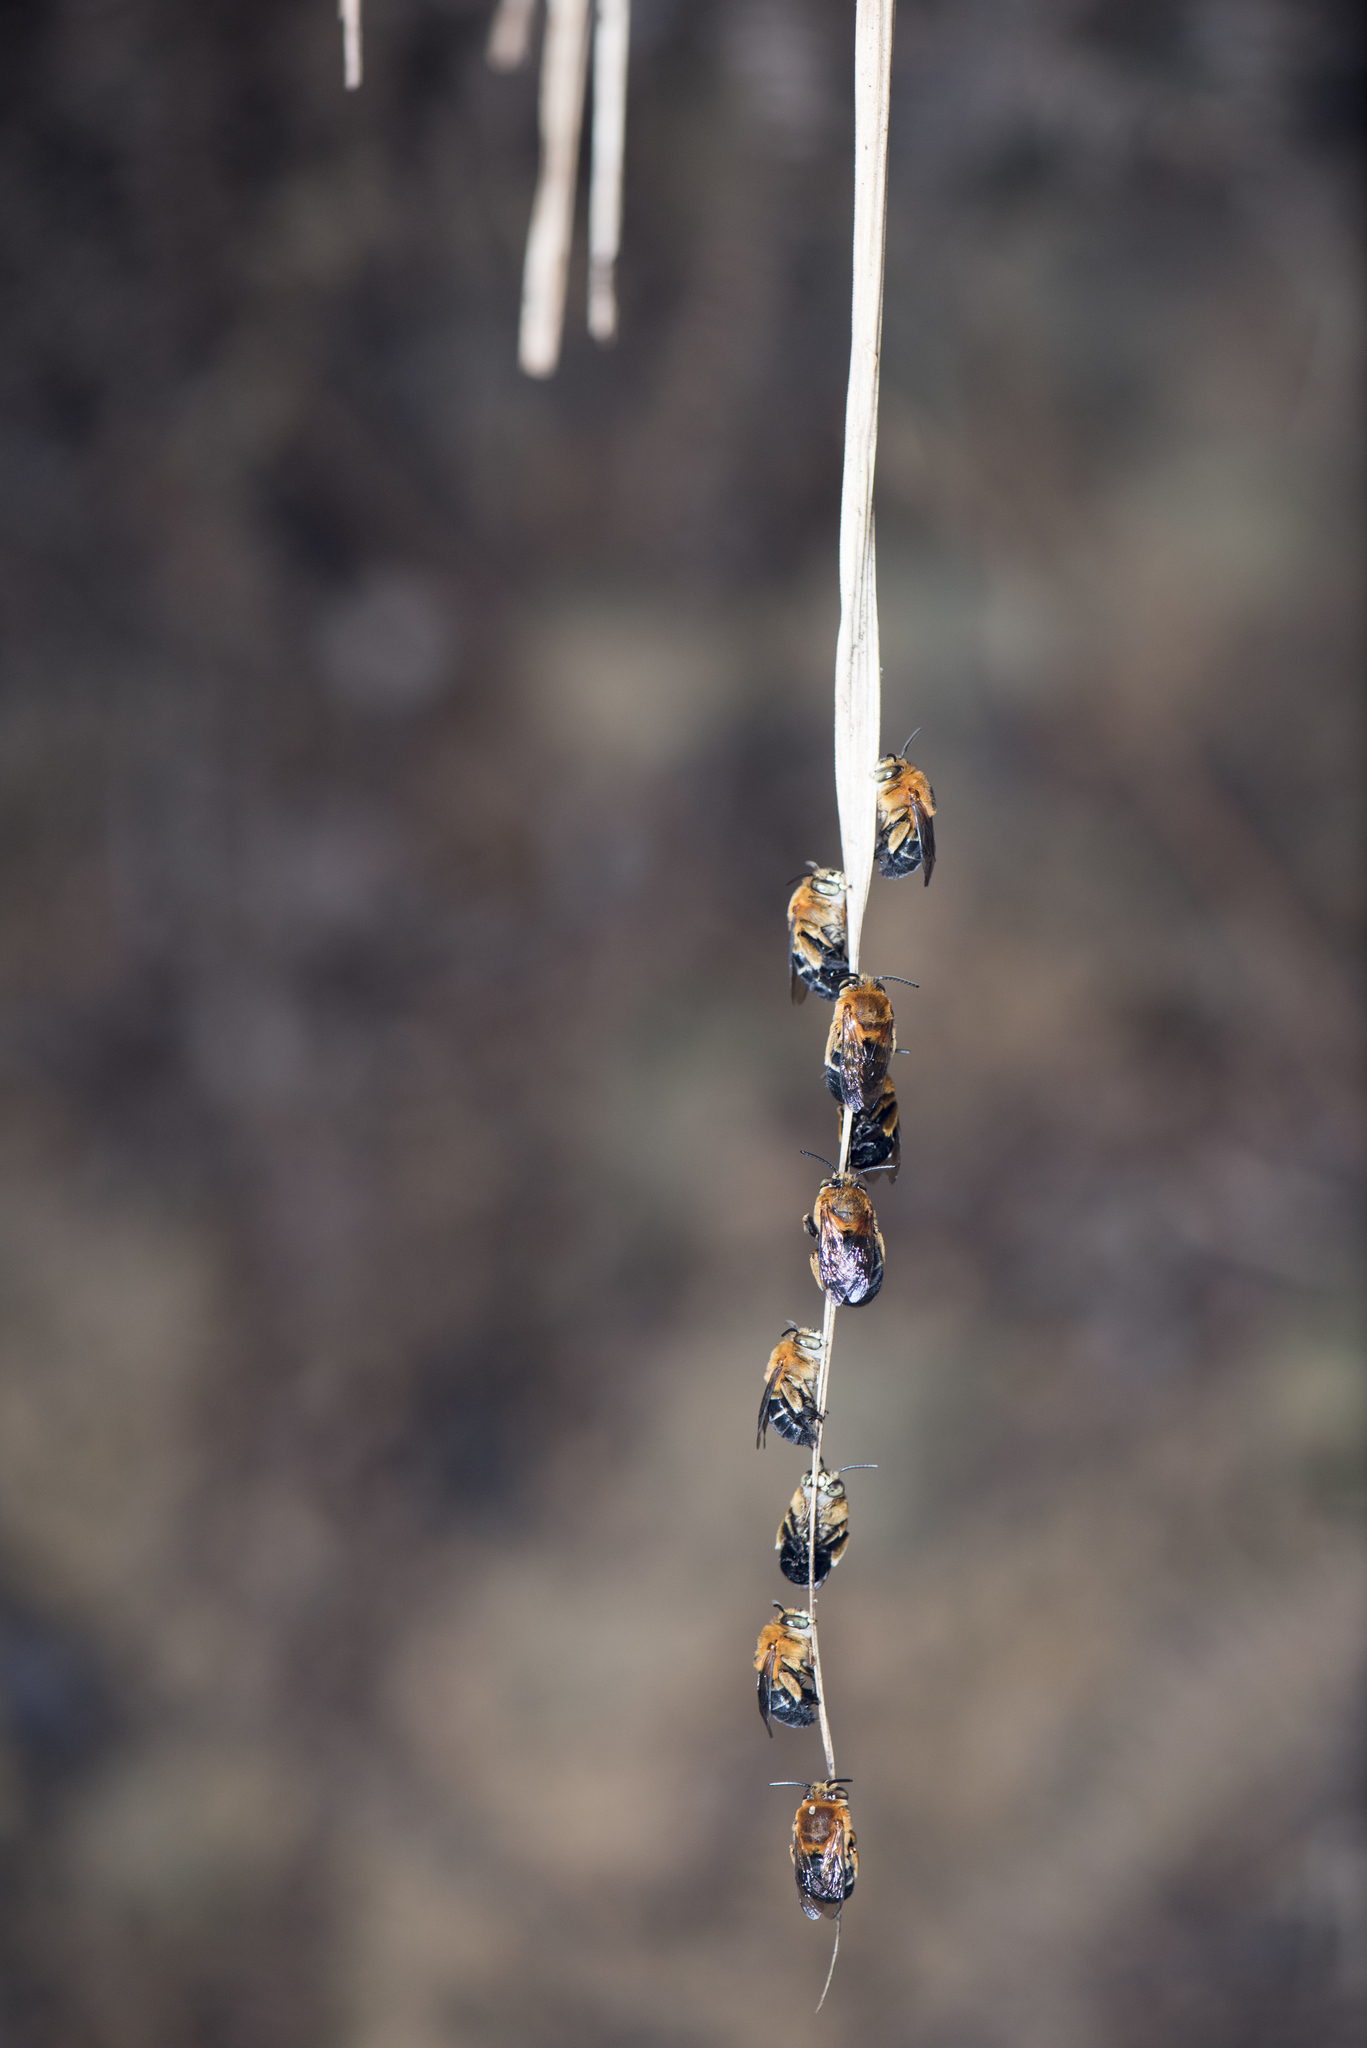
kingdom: Animalia
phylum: Arthropoda
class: Insecta
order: Hymenoptera
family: Apidae
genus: Amegilla
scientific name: Amegilla urens
